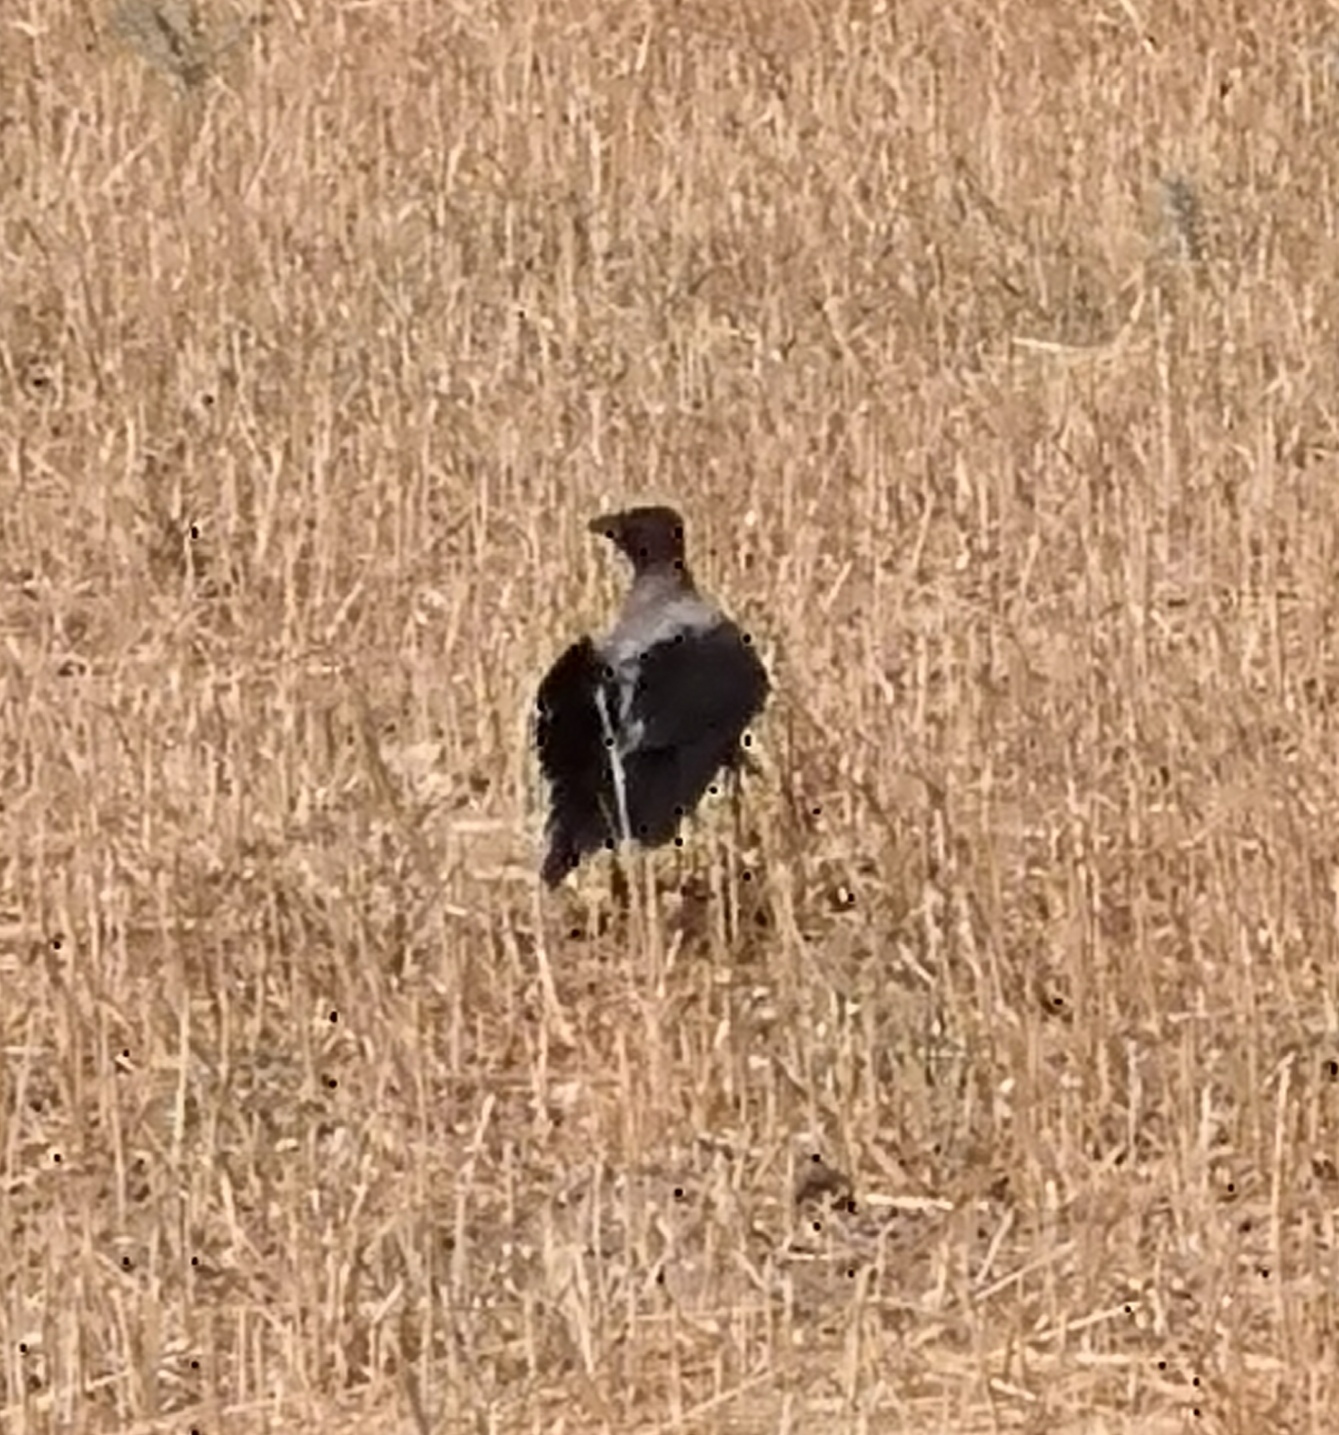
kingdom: Animalia
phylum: Chordata
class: Aves
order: Passeriformes
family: Corvidae
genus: Corvus
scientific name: Corvus cornix
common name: Hooded crow
